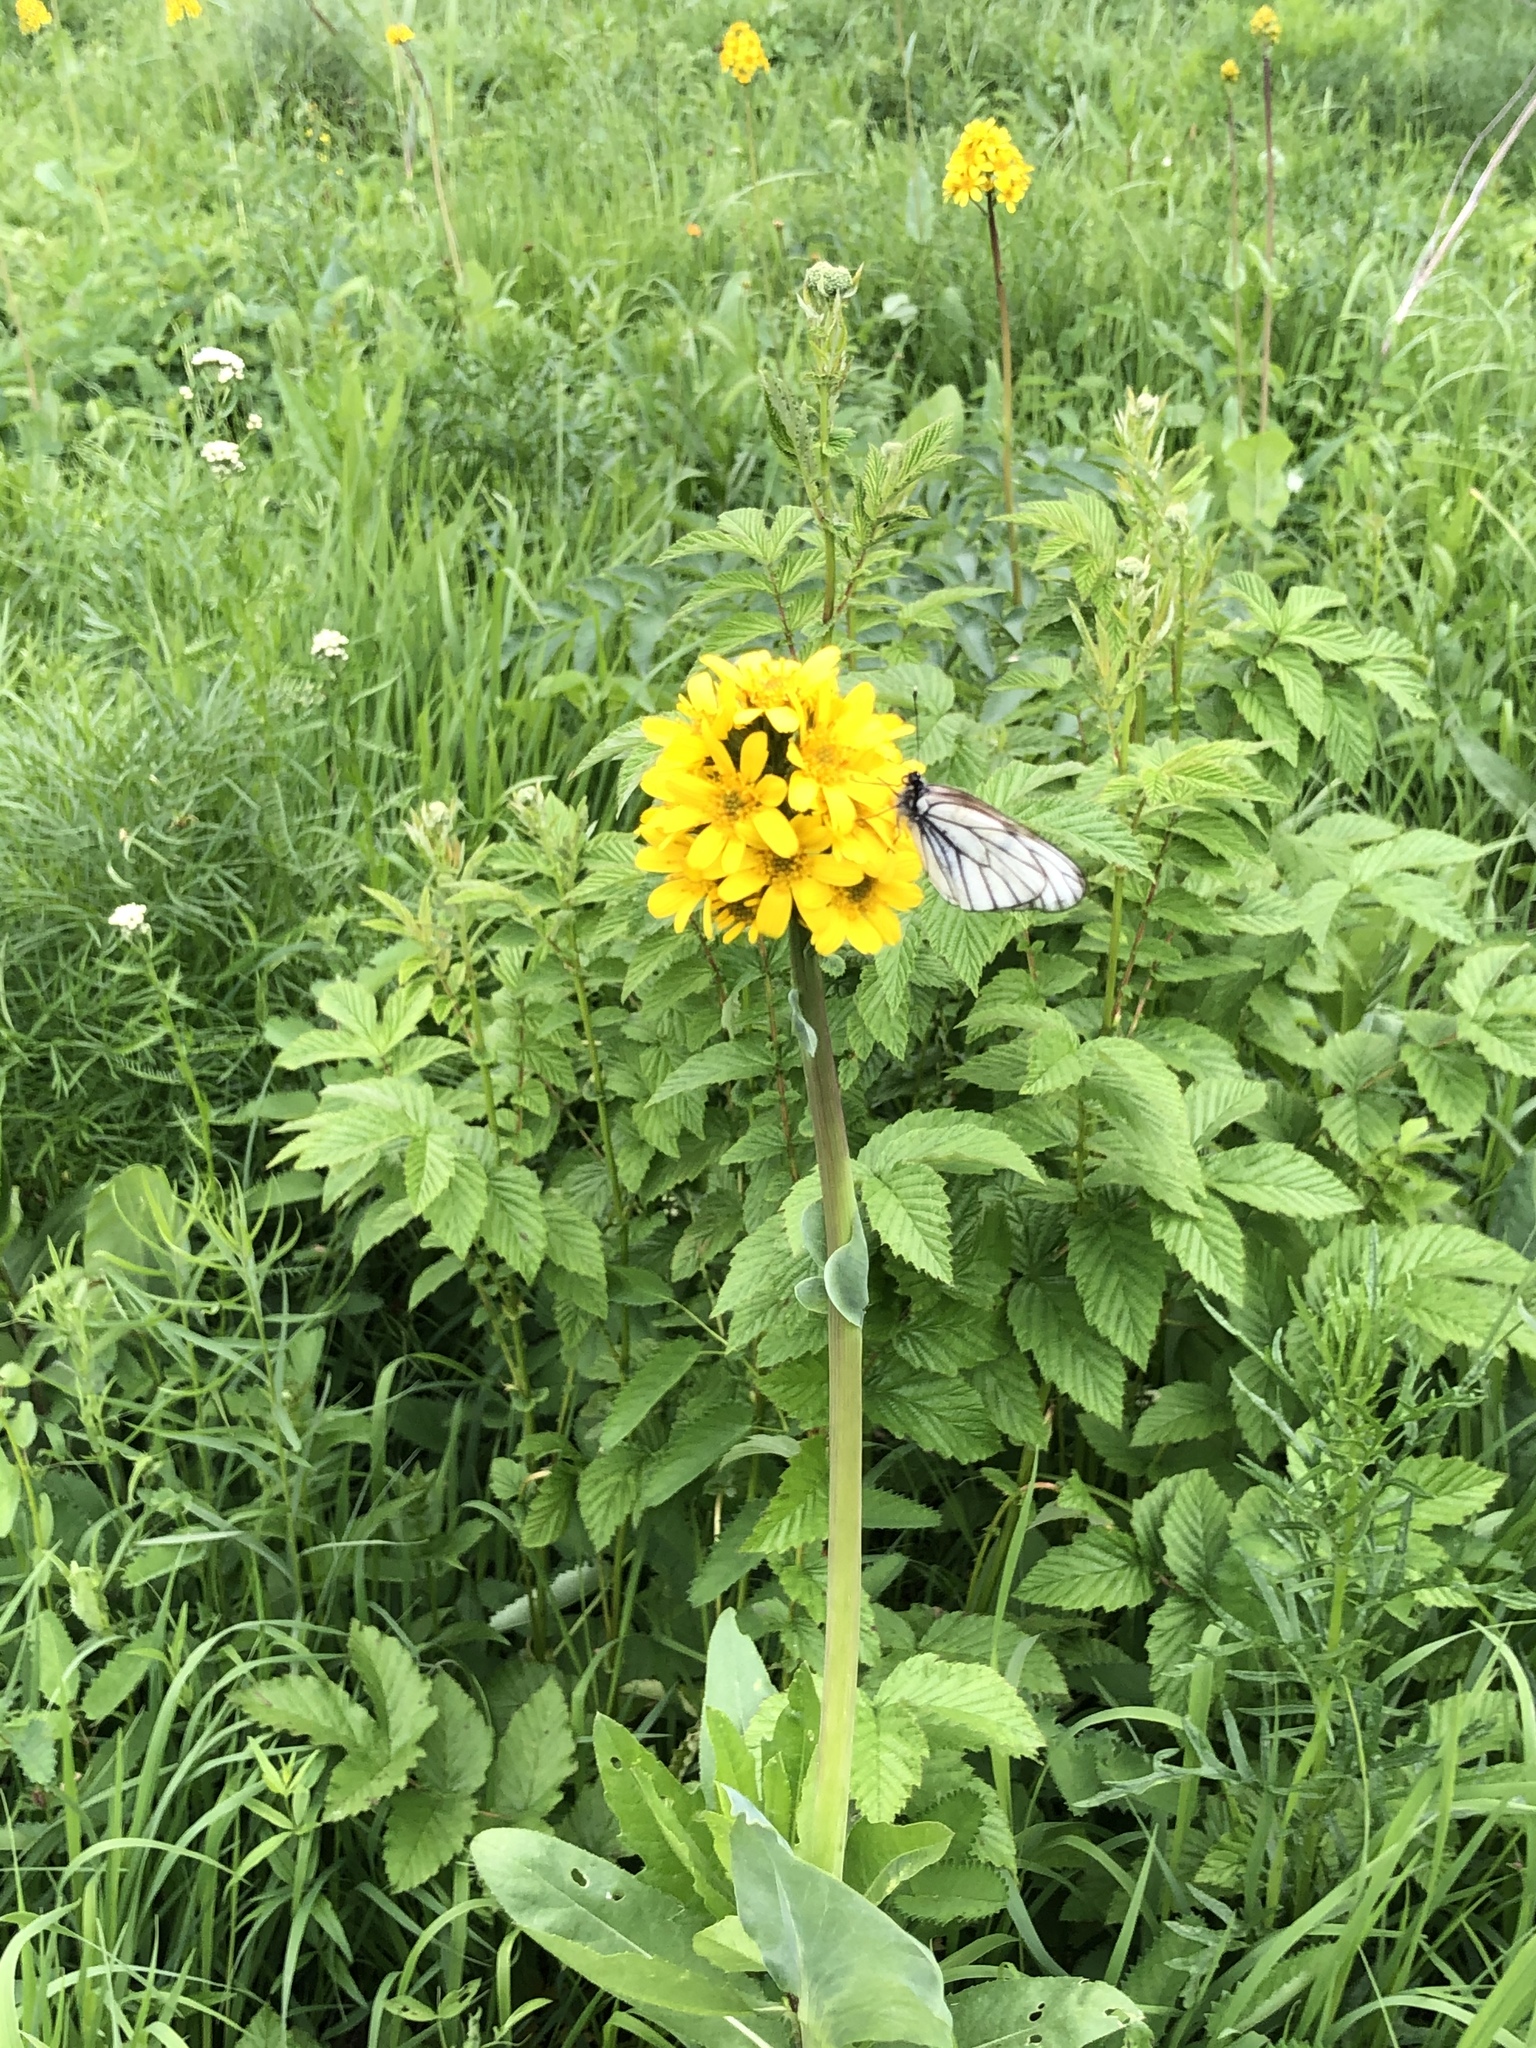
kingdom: Plantae
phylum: Tracheophyta
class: Magnoliopsida
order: Asterales
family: Asteraceae
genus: Ligularia
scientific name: Ligularia glauca
